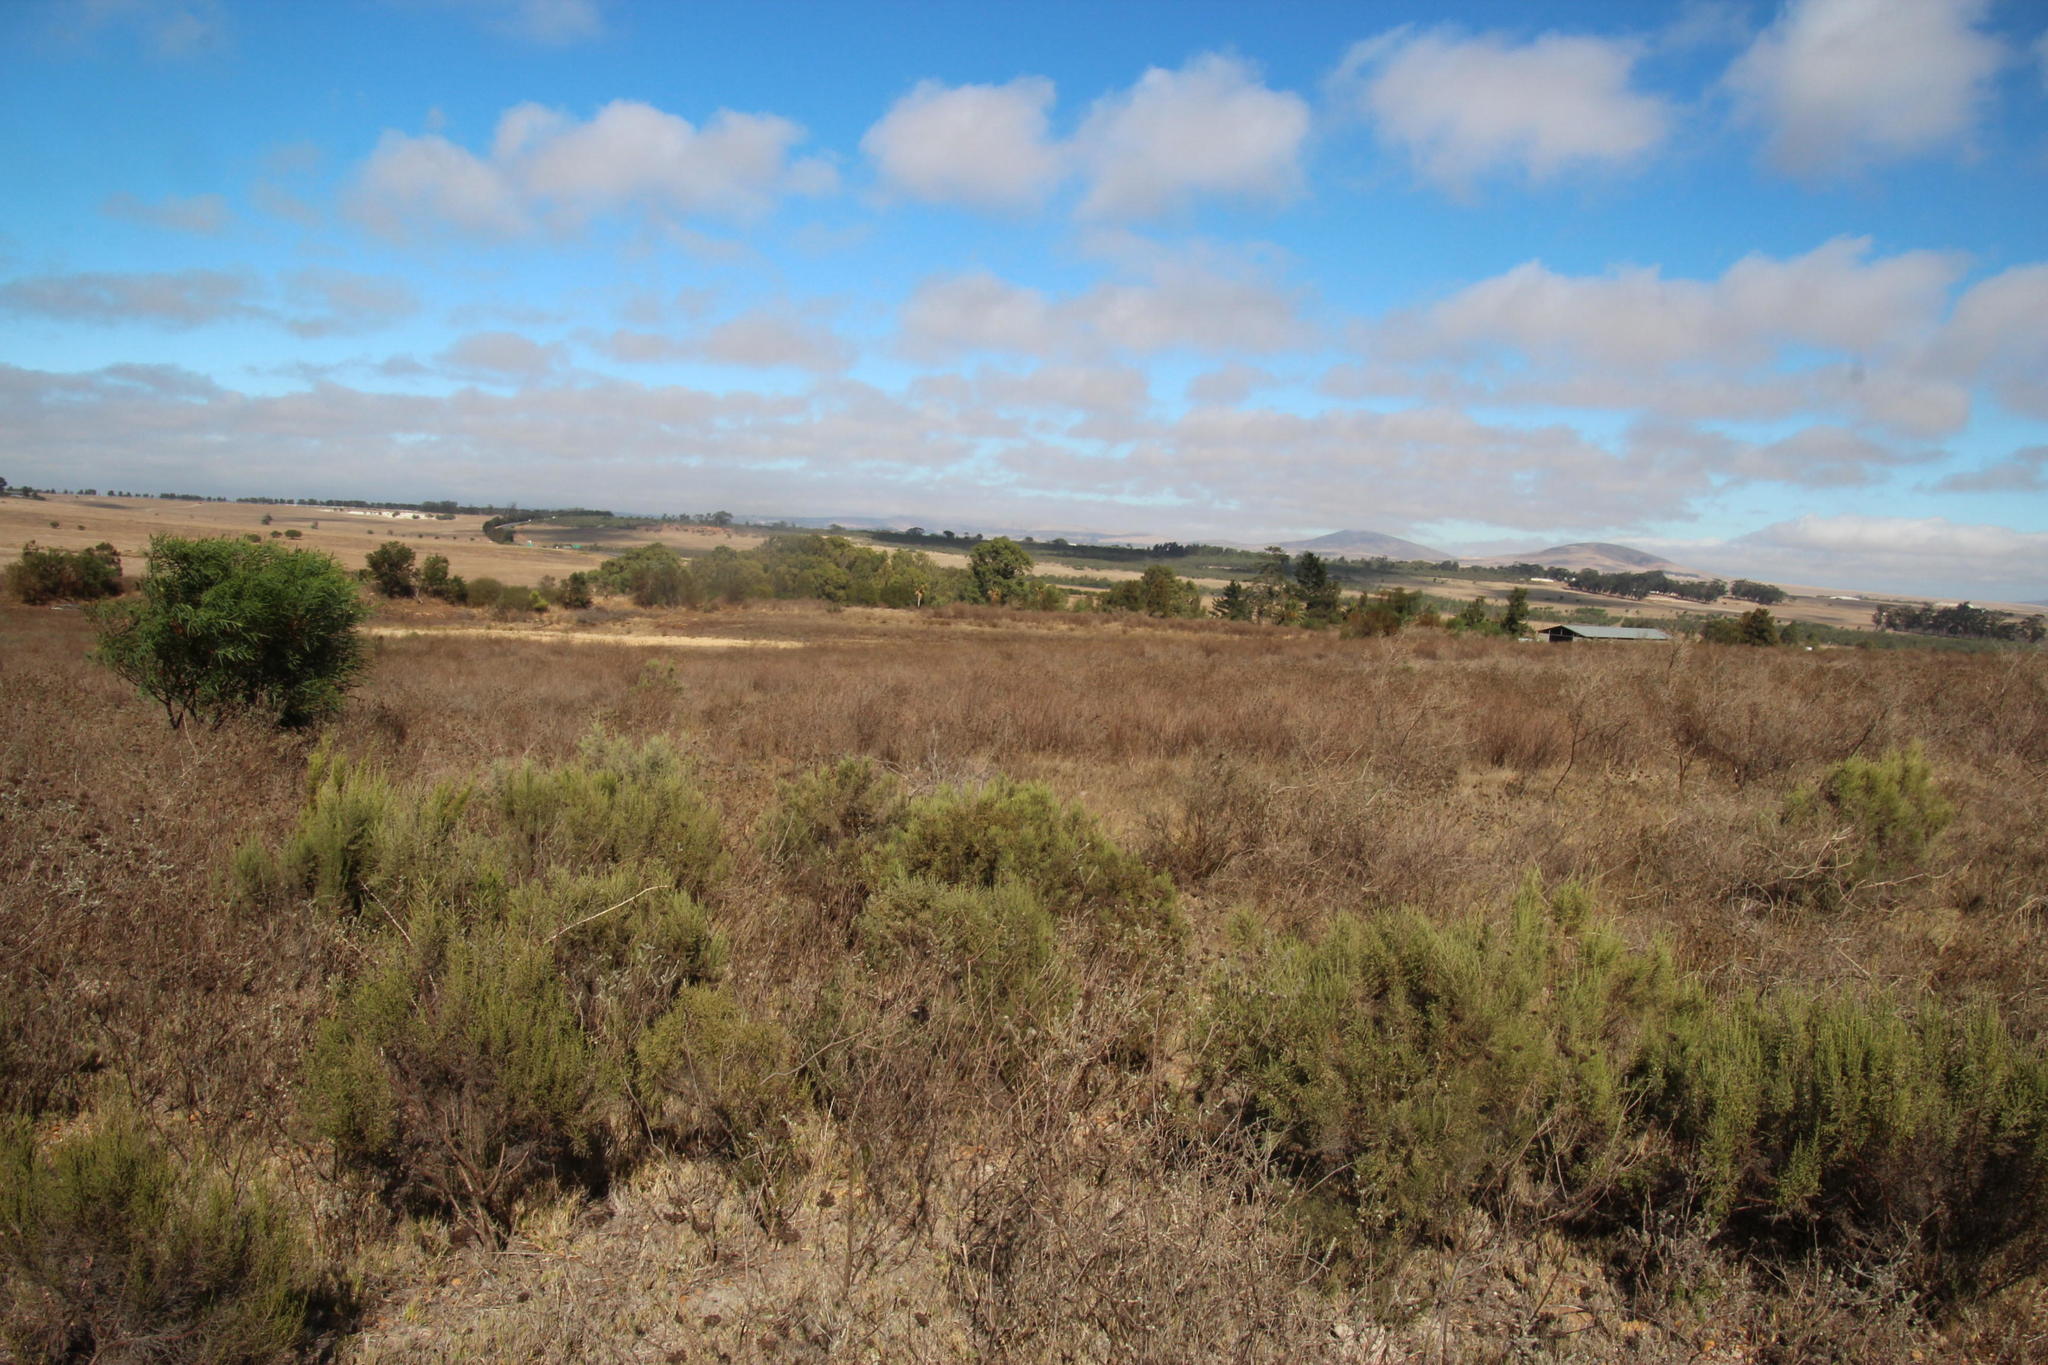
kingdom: Plantae
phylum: Tracheophyta
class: Magnoliopsida
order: Asterales
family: Asteraceae
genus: Dicerothamnus
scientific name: Dicerothamnus rhinocerotis
